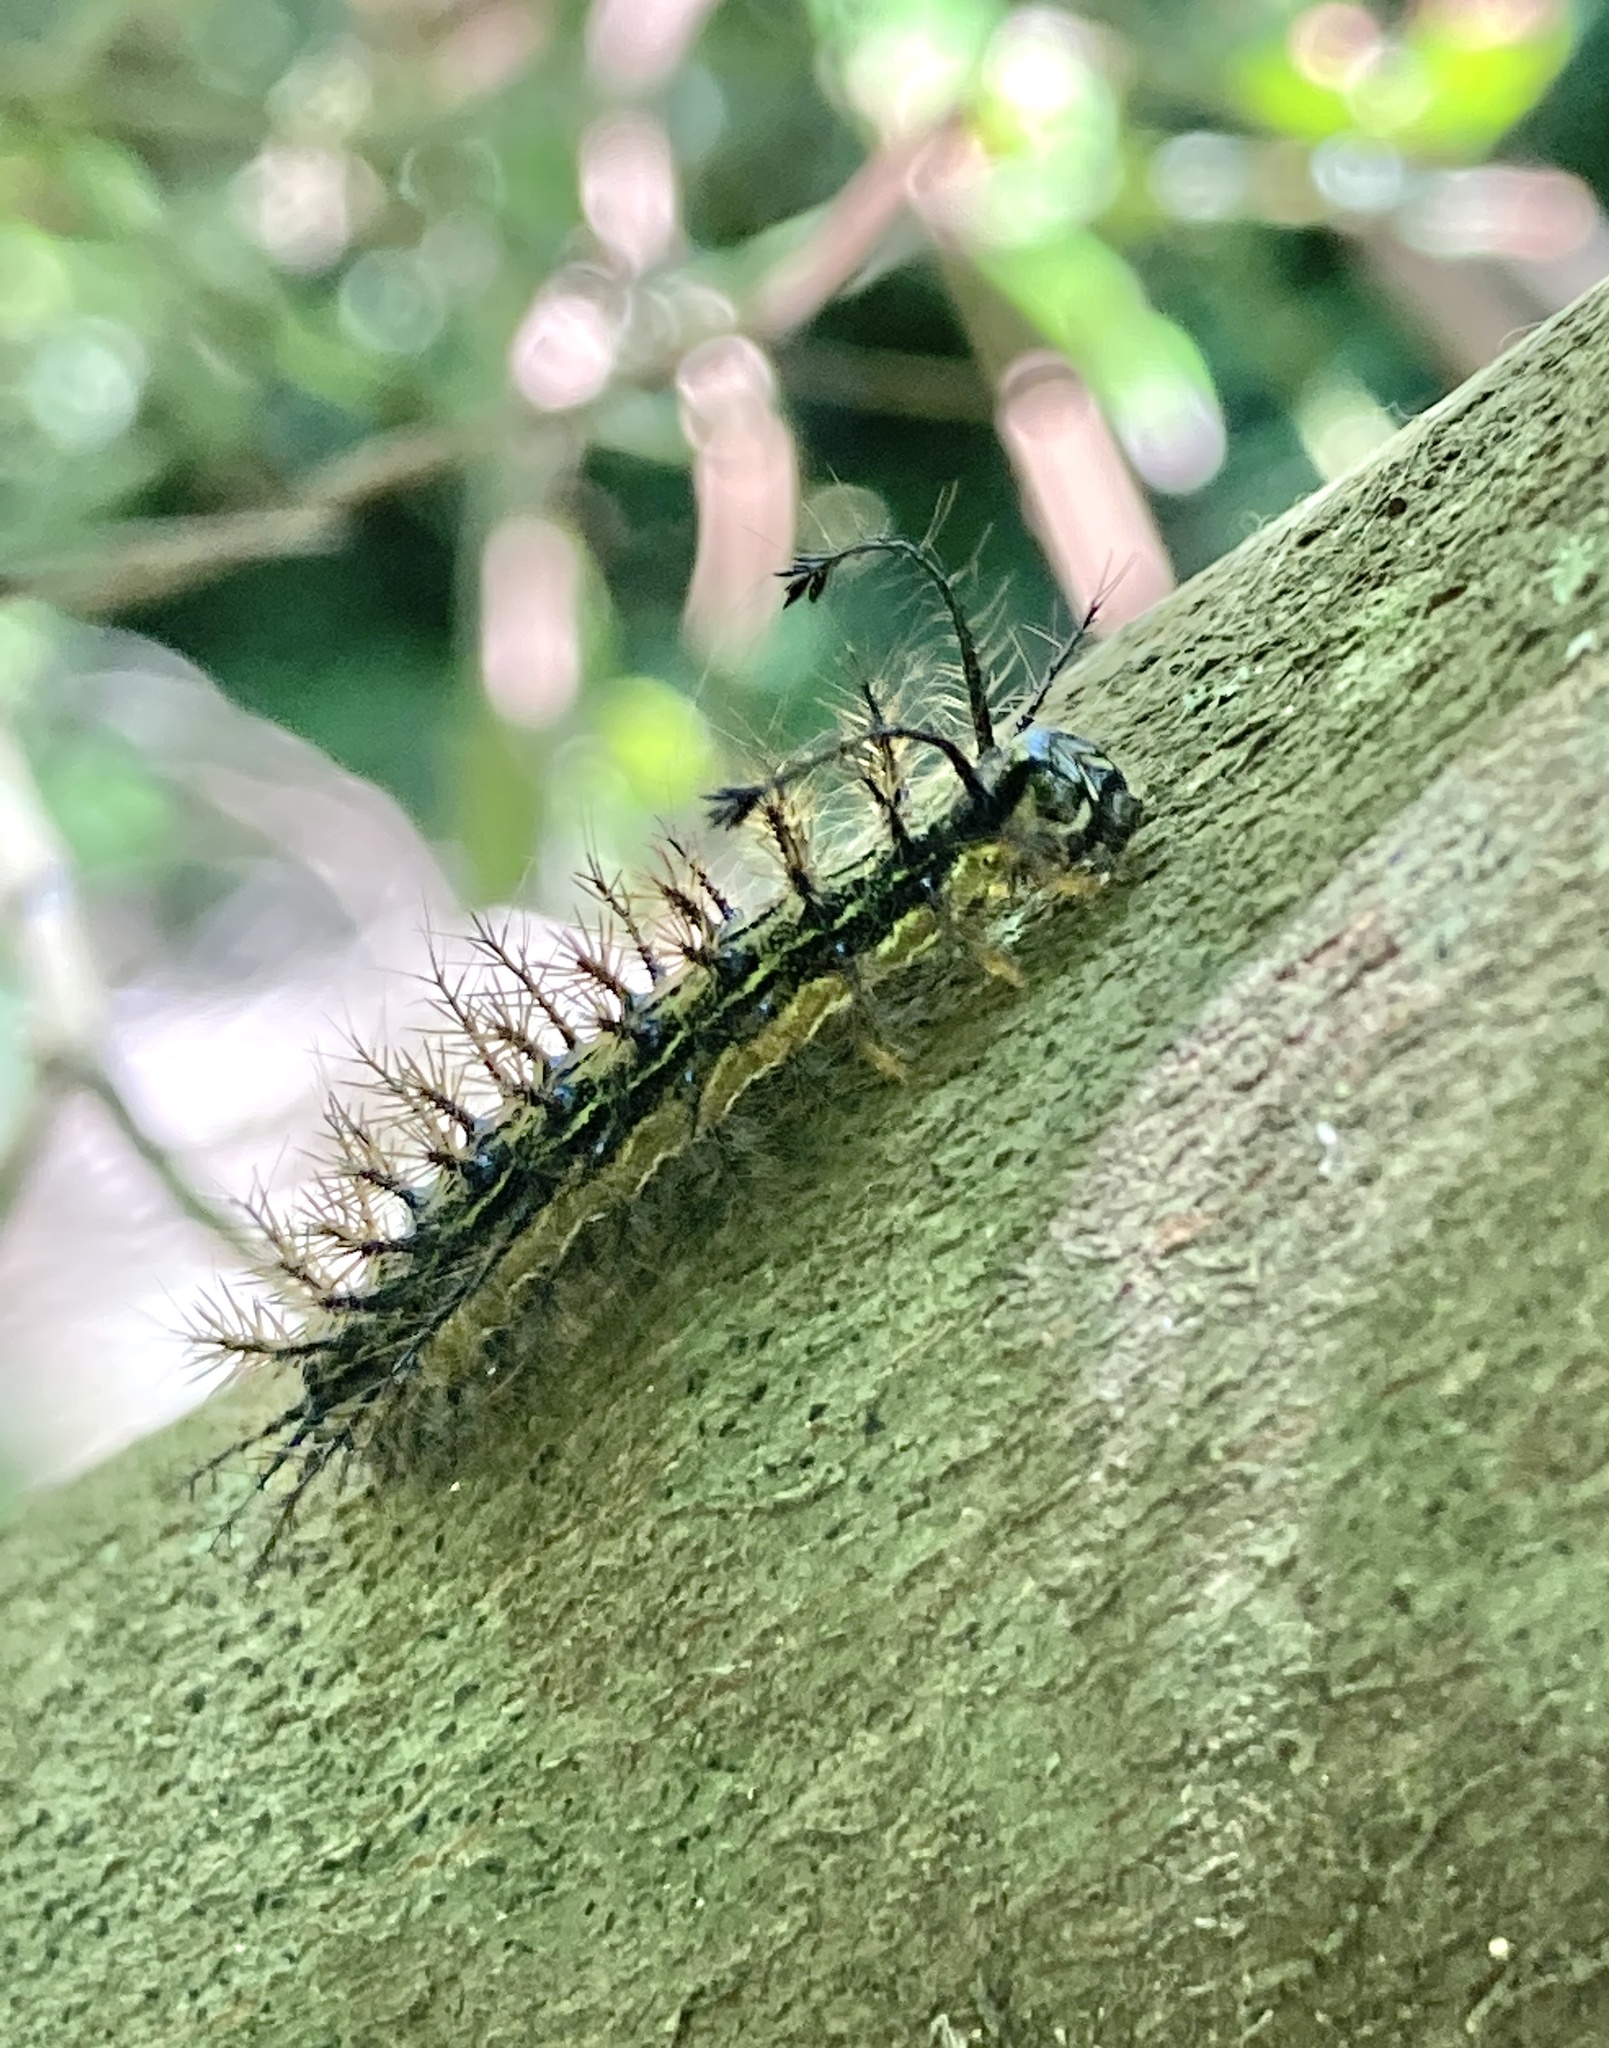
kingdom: Animalia
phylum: Arthropoda
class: Insecta
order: Lepidoptera
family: Saturniidae
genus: Hylesia
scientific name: Hylesia nigricans
